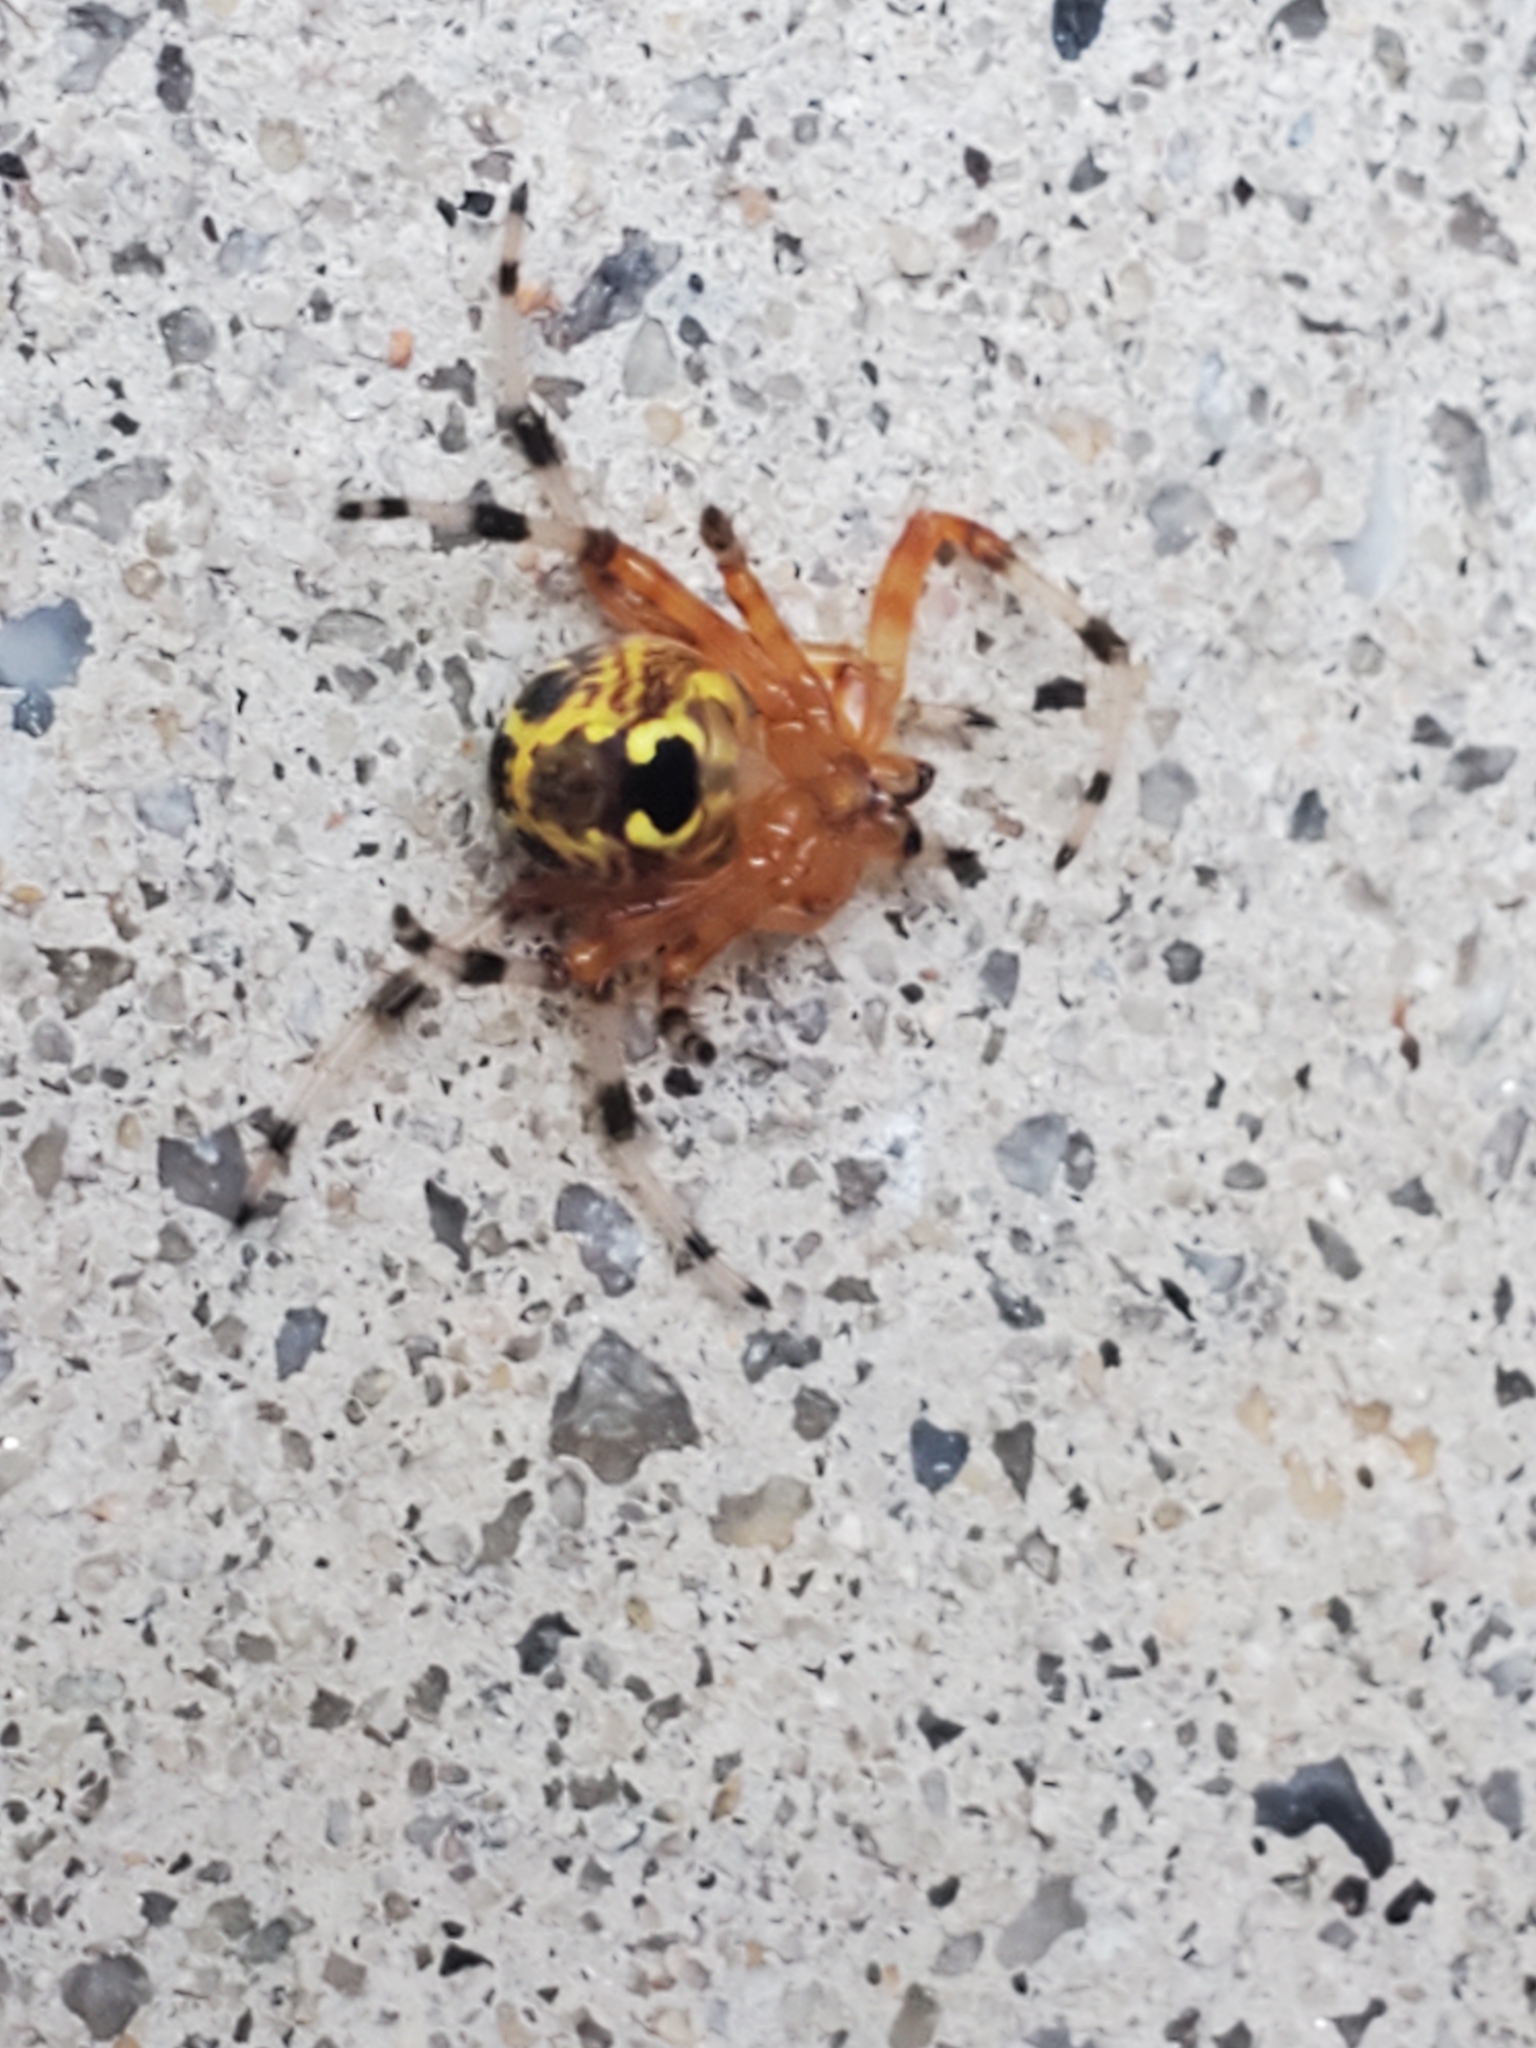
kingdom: Animalia
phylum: Arthropoda
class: Arachnida
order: Araneae
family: Araneidae
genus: Araneus
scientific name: Araneus marmoreus
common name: Marbled orbweaver
